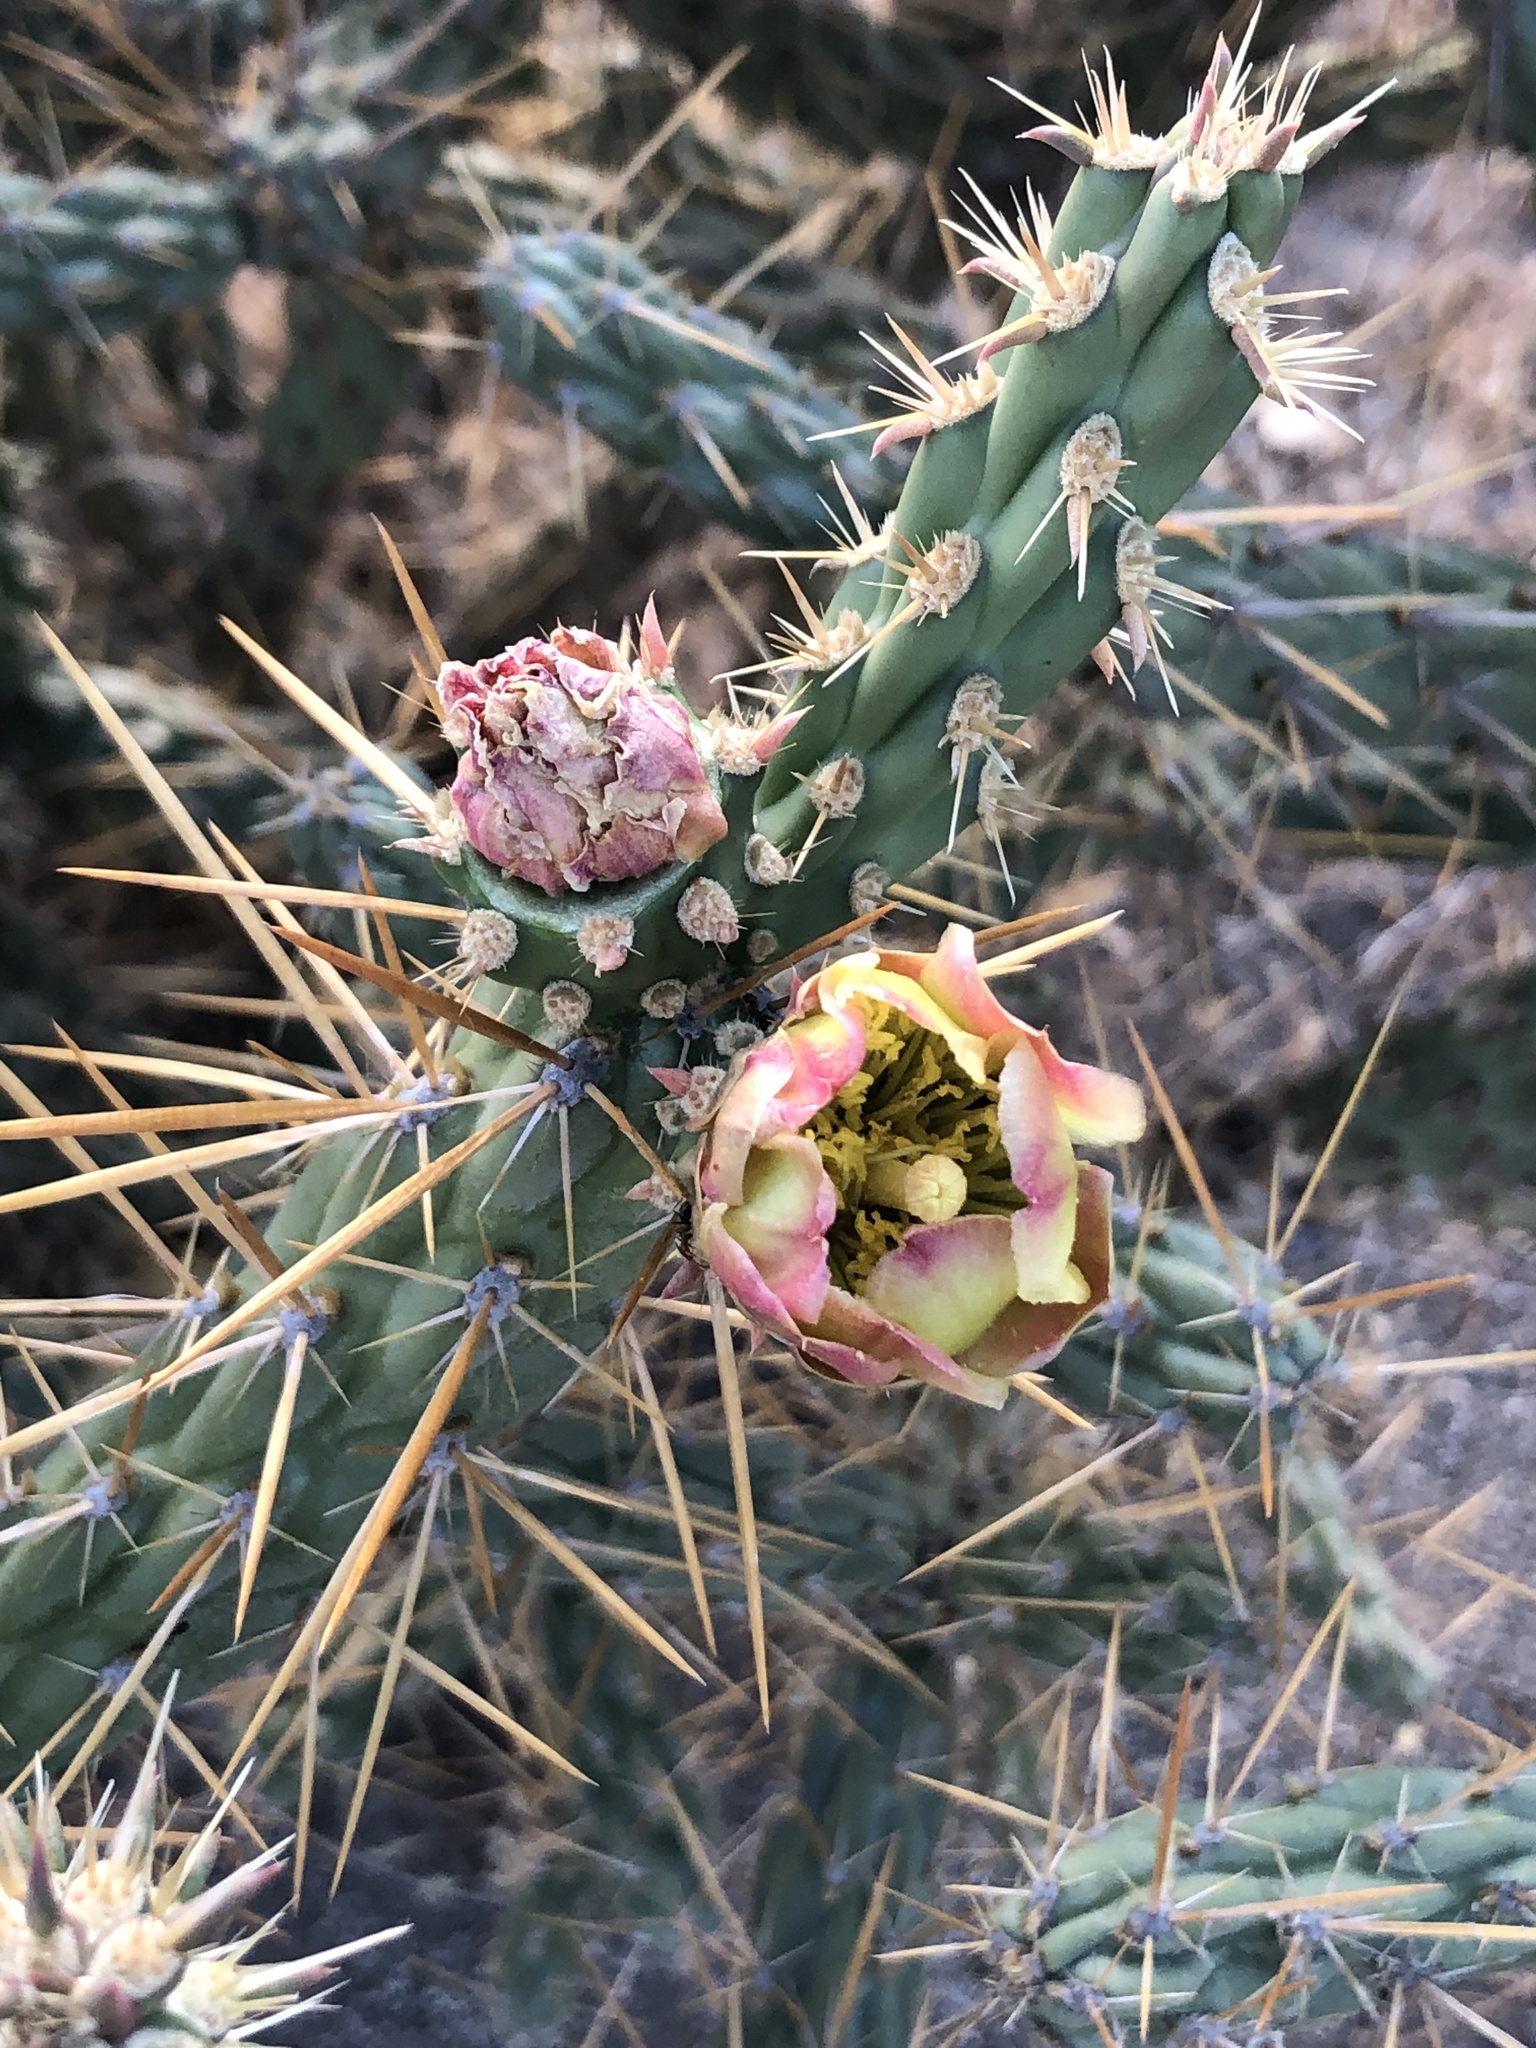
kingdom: Plantae
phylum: Tracheophyta
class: Magnoliopsida
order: Caryophyllales
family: Cactaceae
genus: Cylindropuntia
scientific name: Cylindropuntia bernardina
